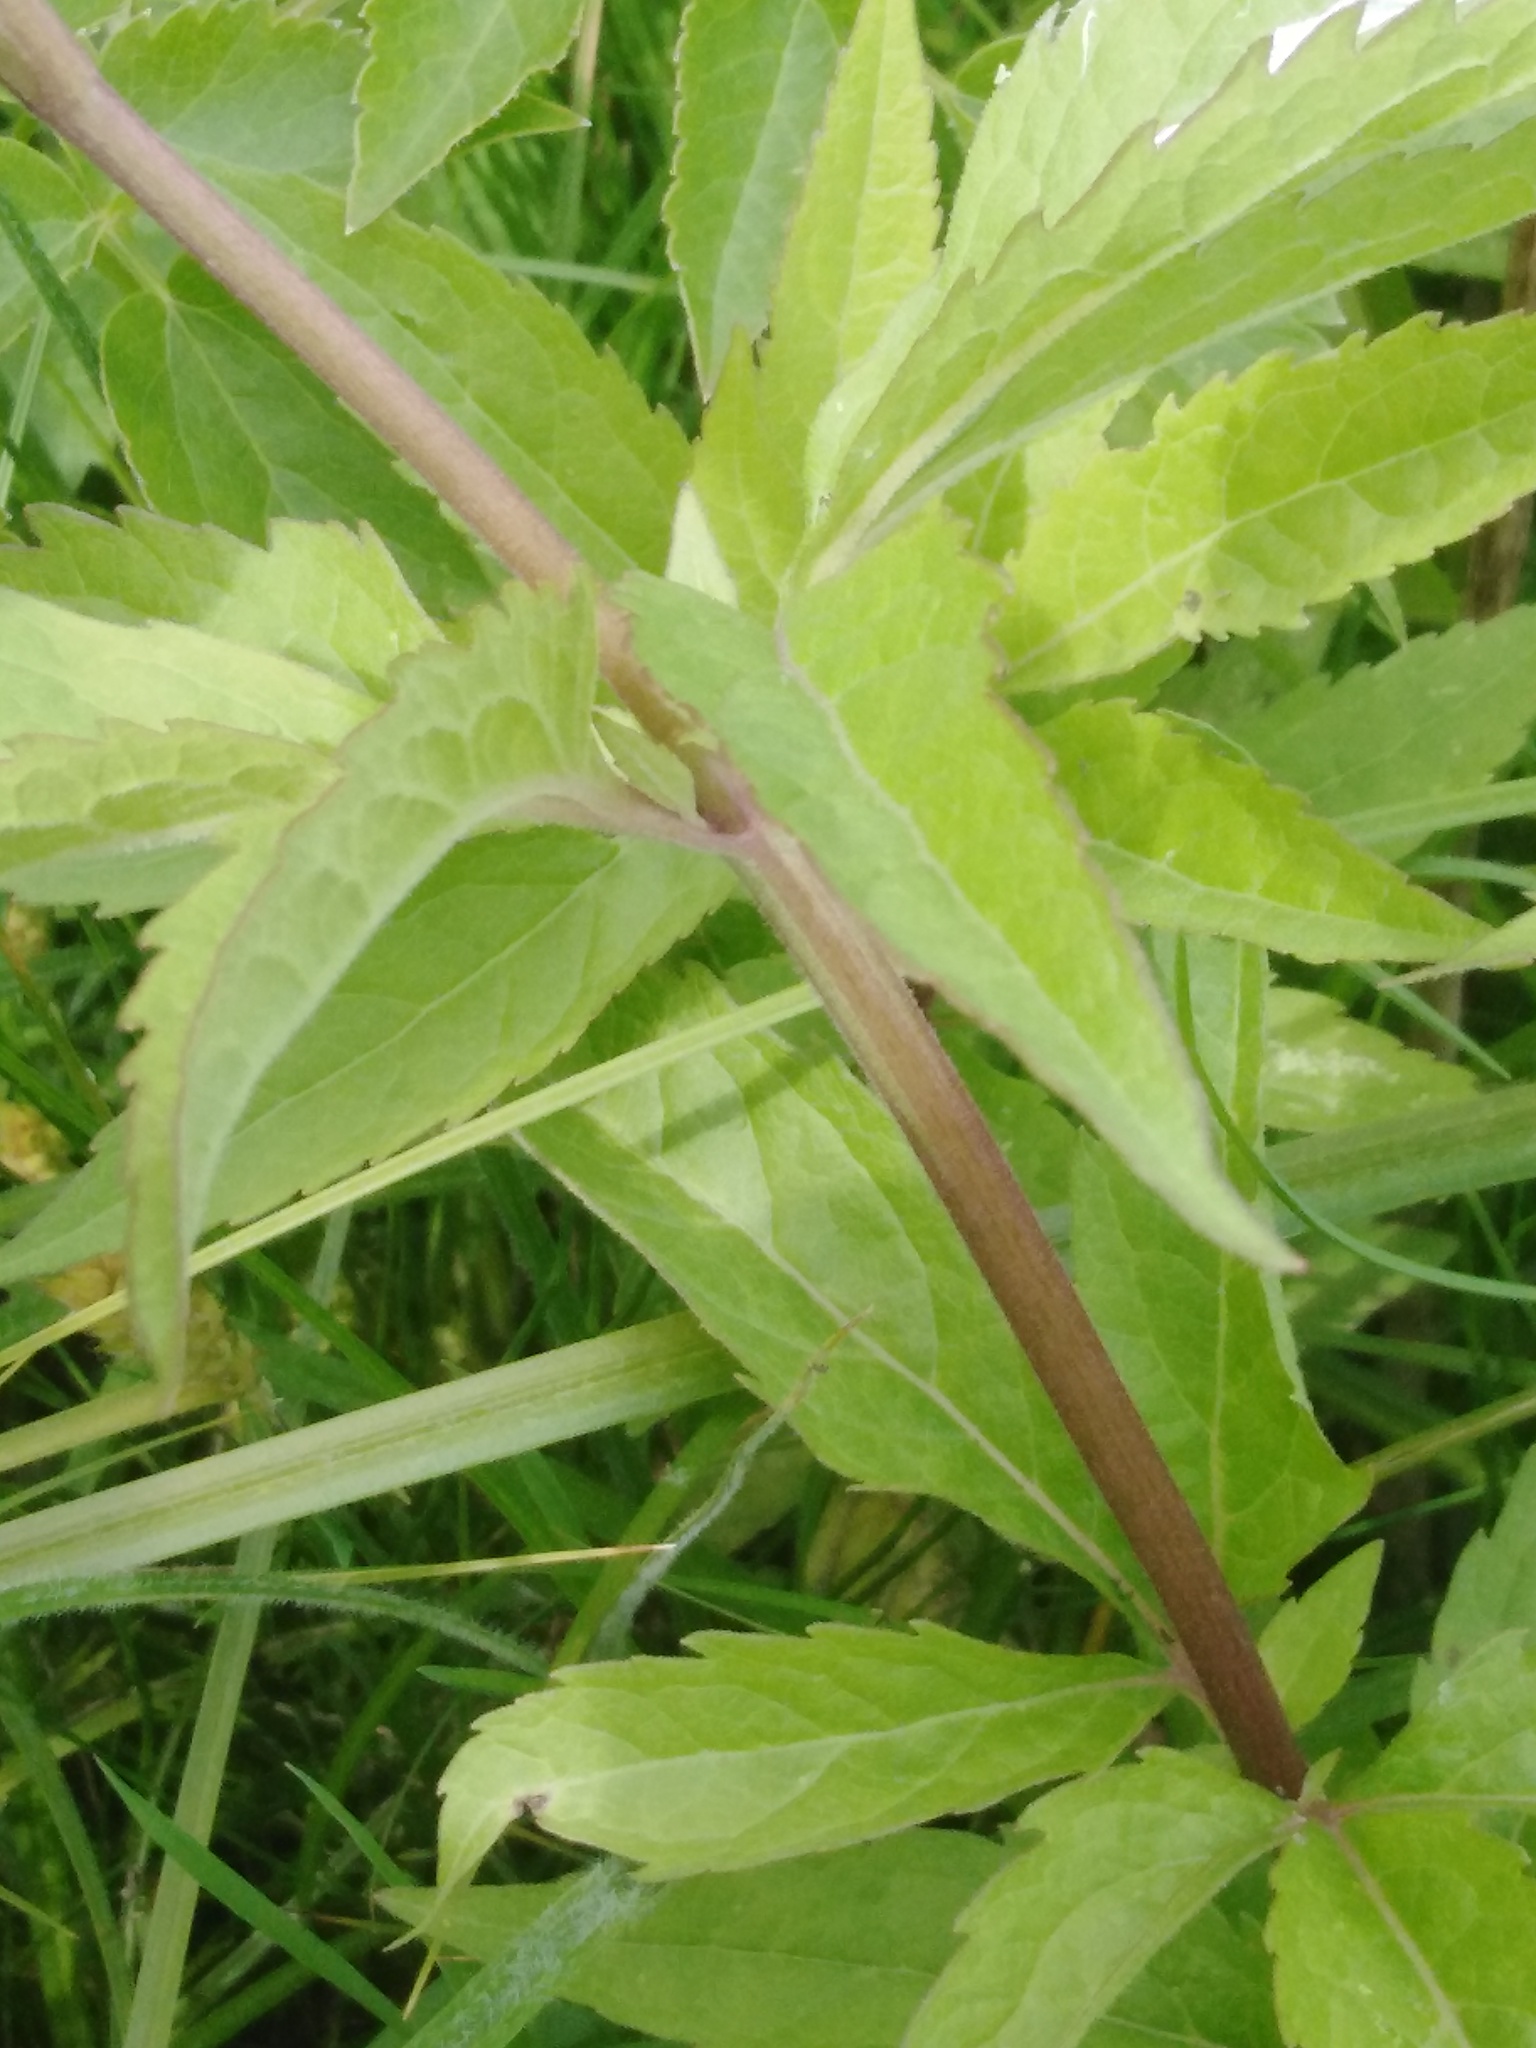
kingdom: Plantae
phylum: Tracheophyta
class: Magnoliopsida
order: Asterales
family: Asteraceae
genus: Eupatorium
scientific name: Eupatorium cannabinum
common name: Hemp-agrimony
